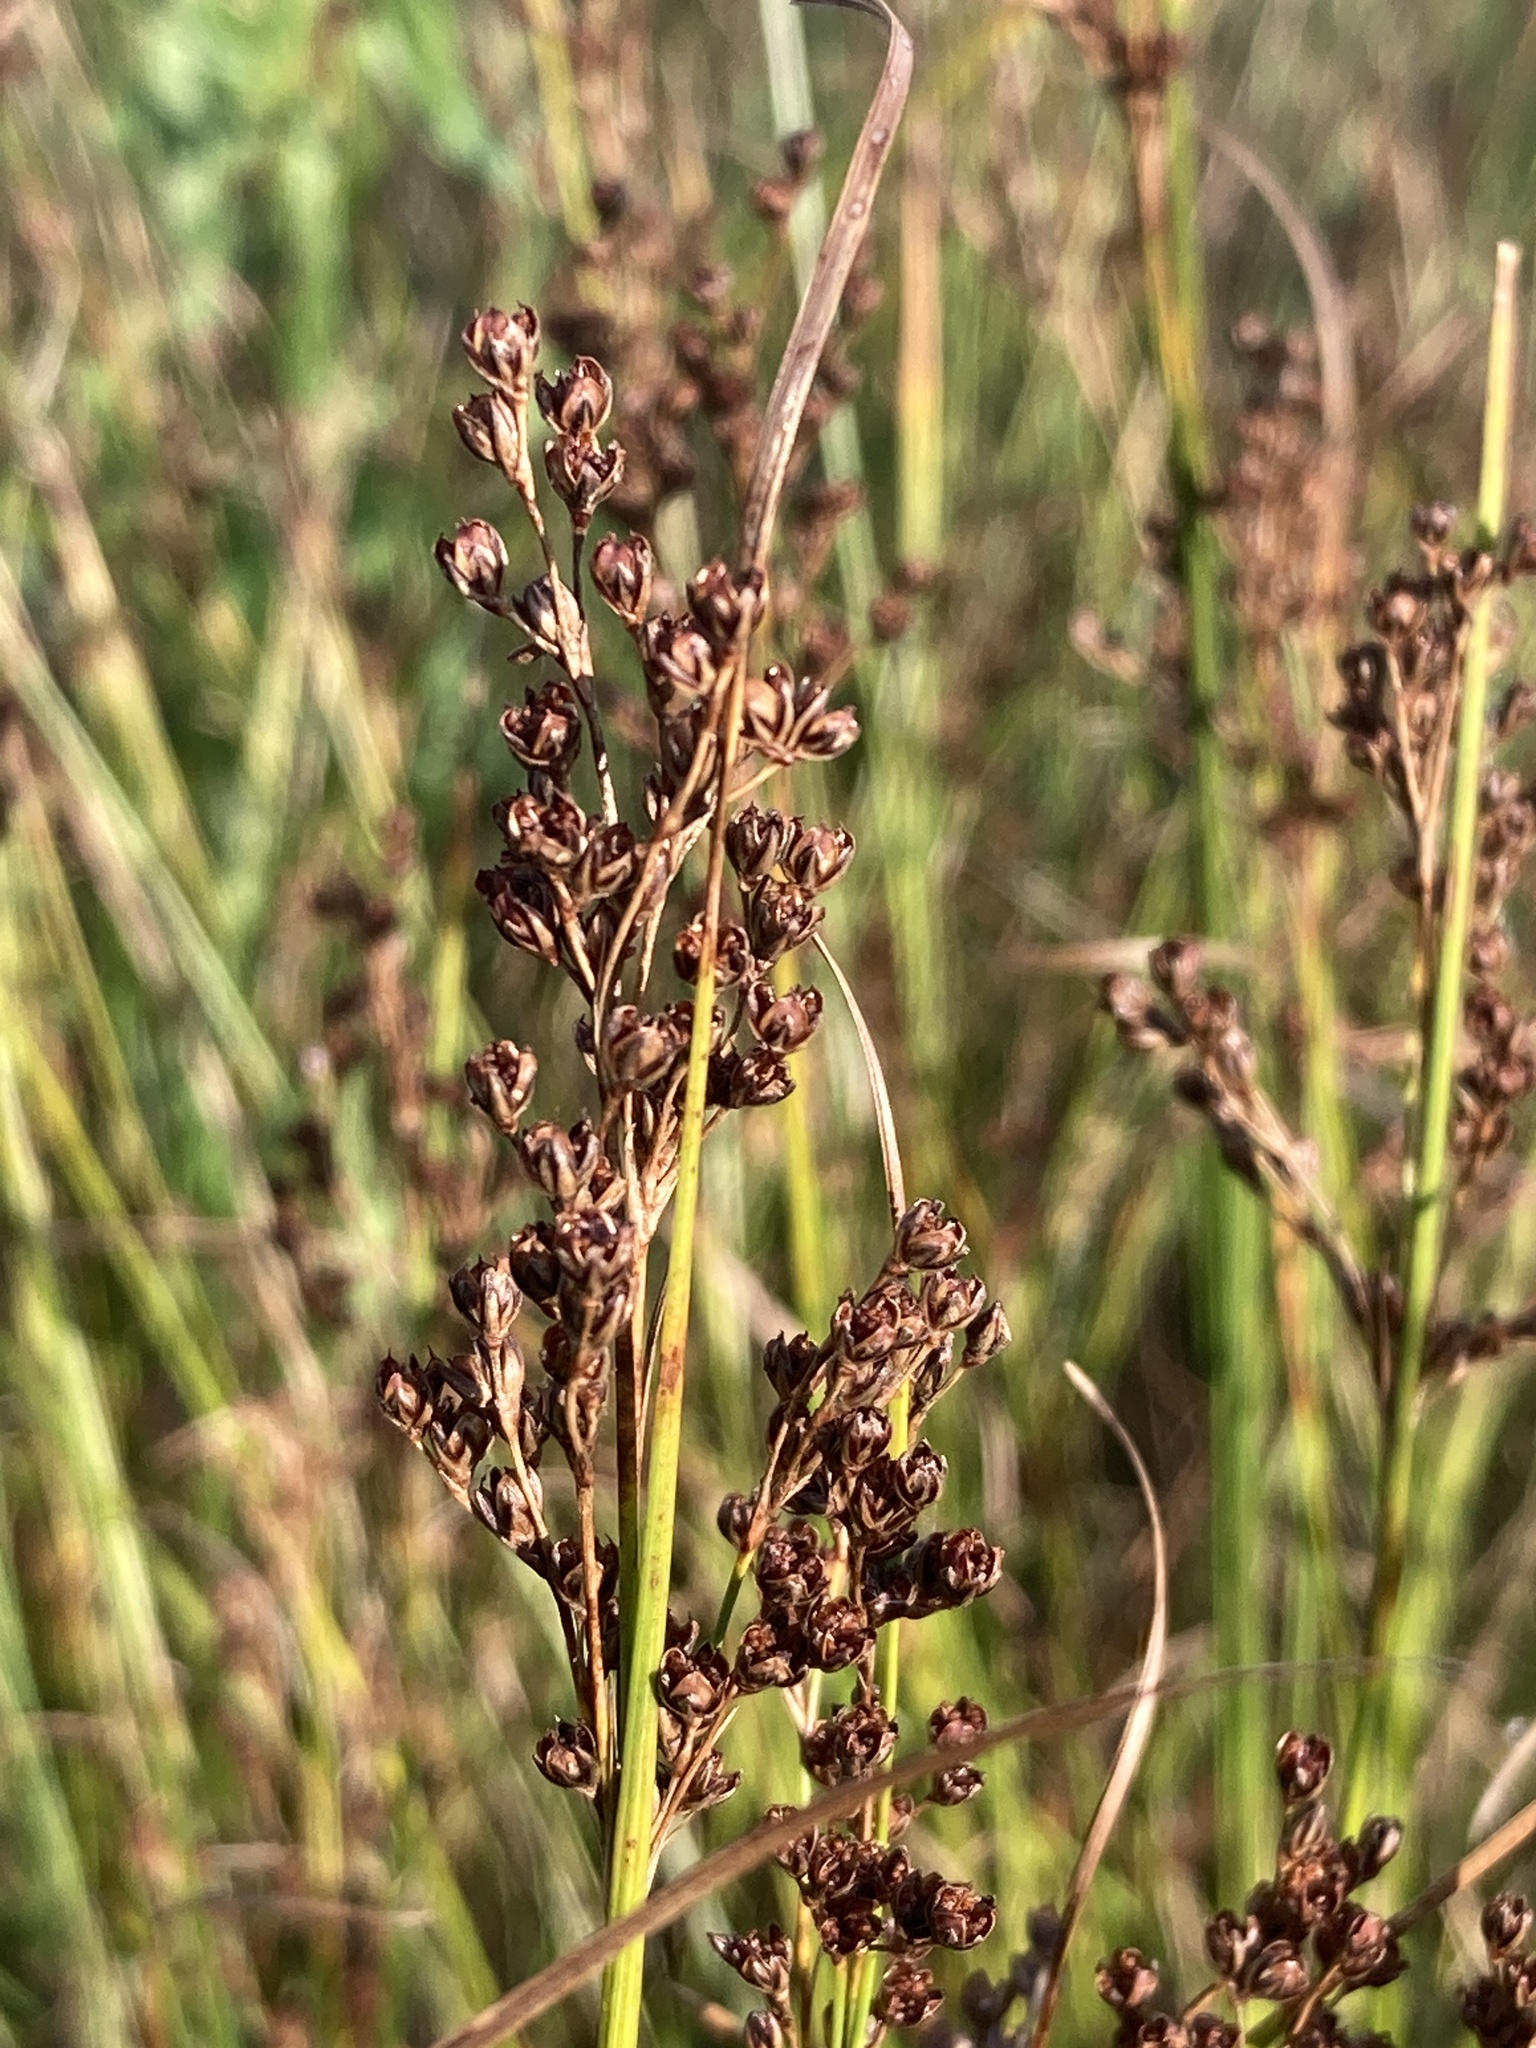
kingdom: Plantae
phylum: Tracheophyta
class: Liliopsida
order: Poales
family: Juncaceae
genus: Juncus
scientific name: Juncus compressus
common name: Round-fruited rush
